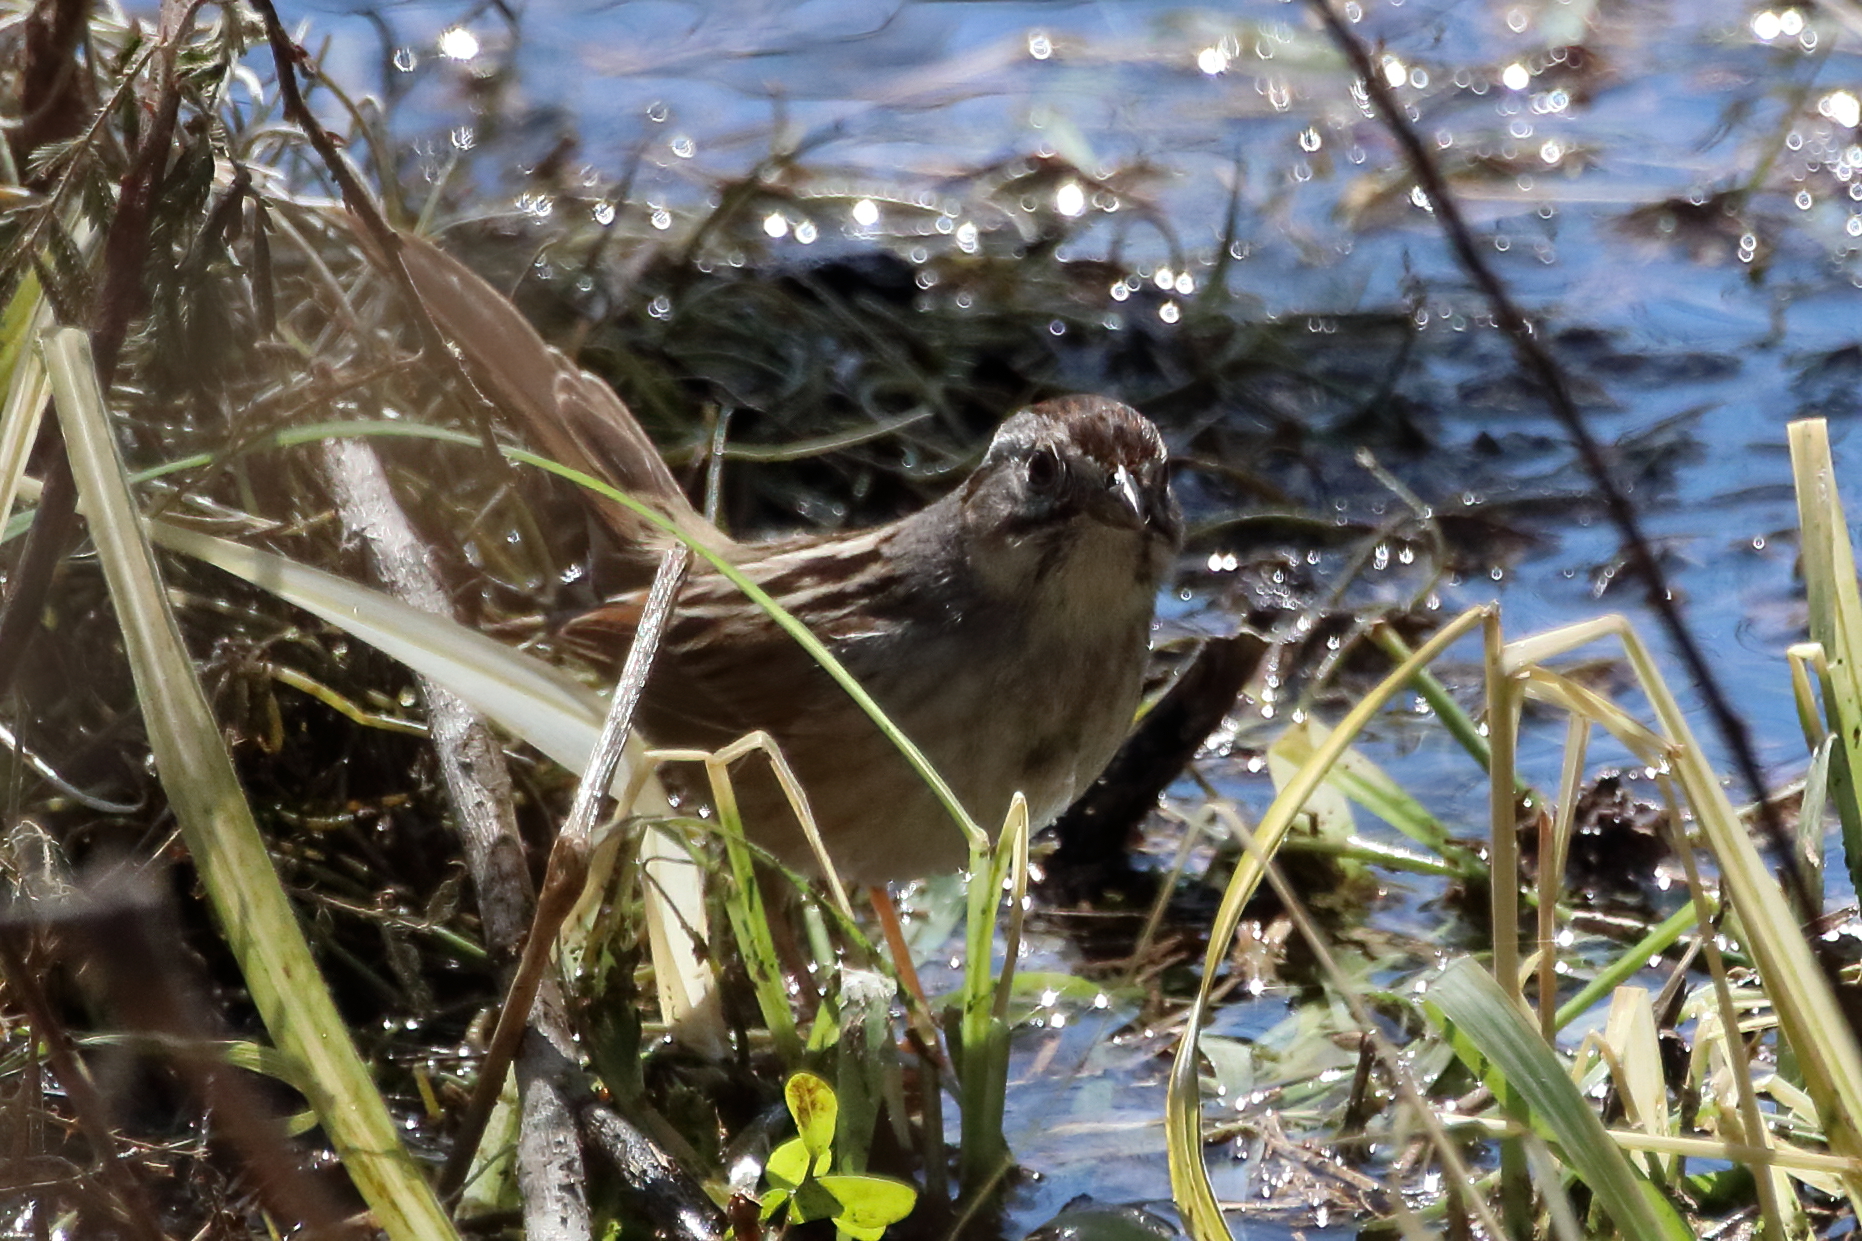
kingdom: Animalia
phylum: Chordata
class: Aves
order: Passeriformes
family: Passerellidae
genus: Melospiza
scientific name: Melospiza georgiana
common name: Swamp sparrow
